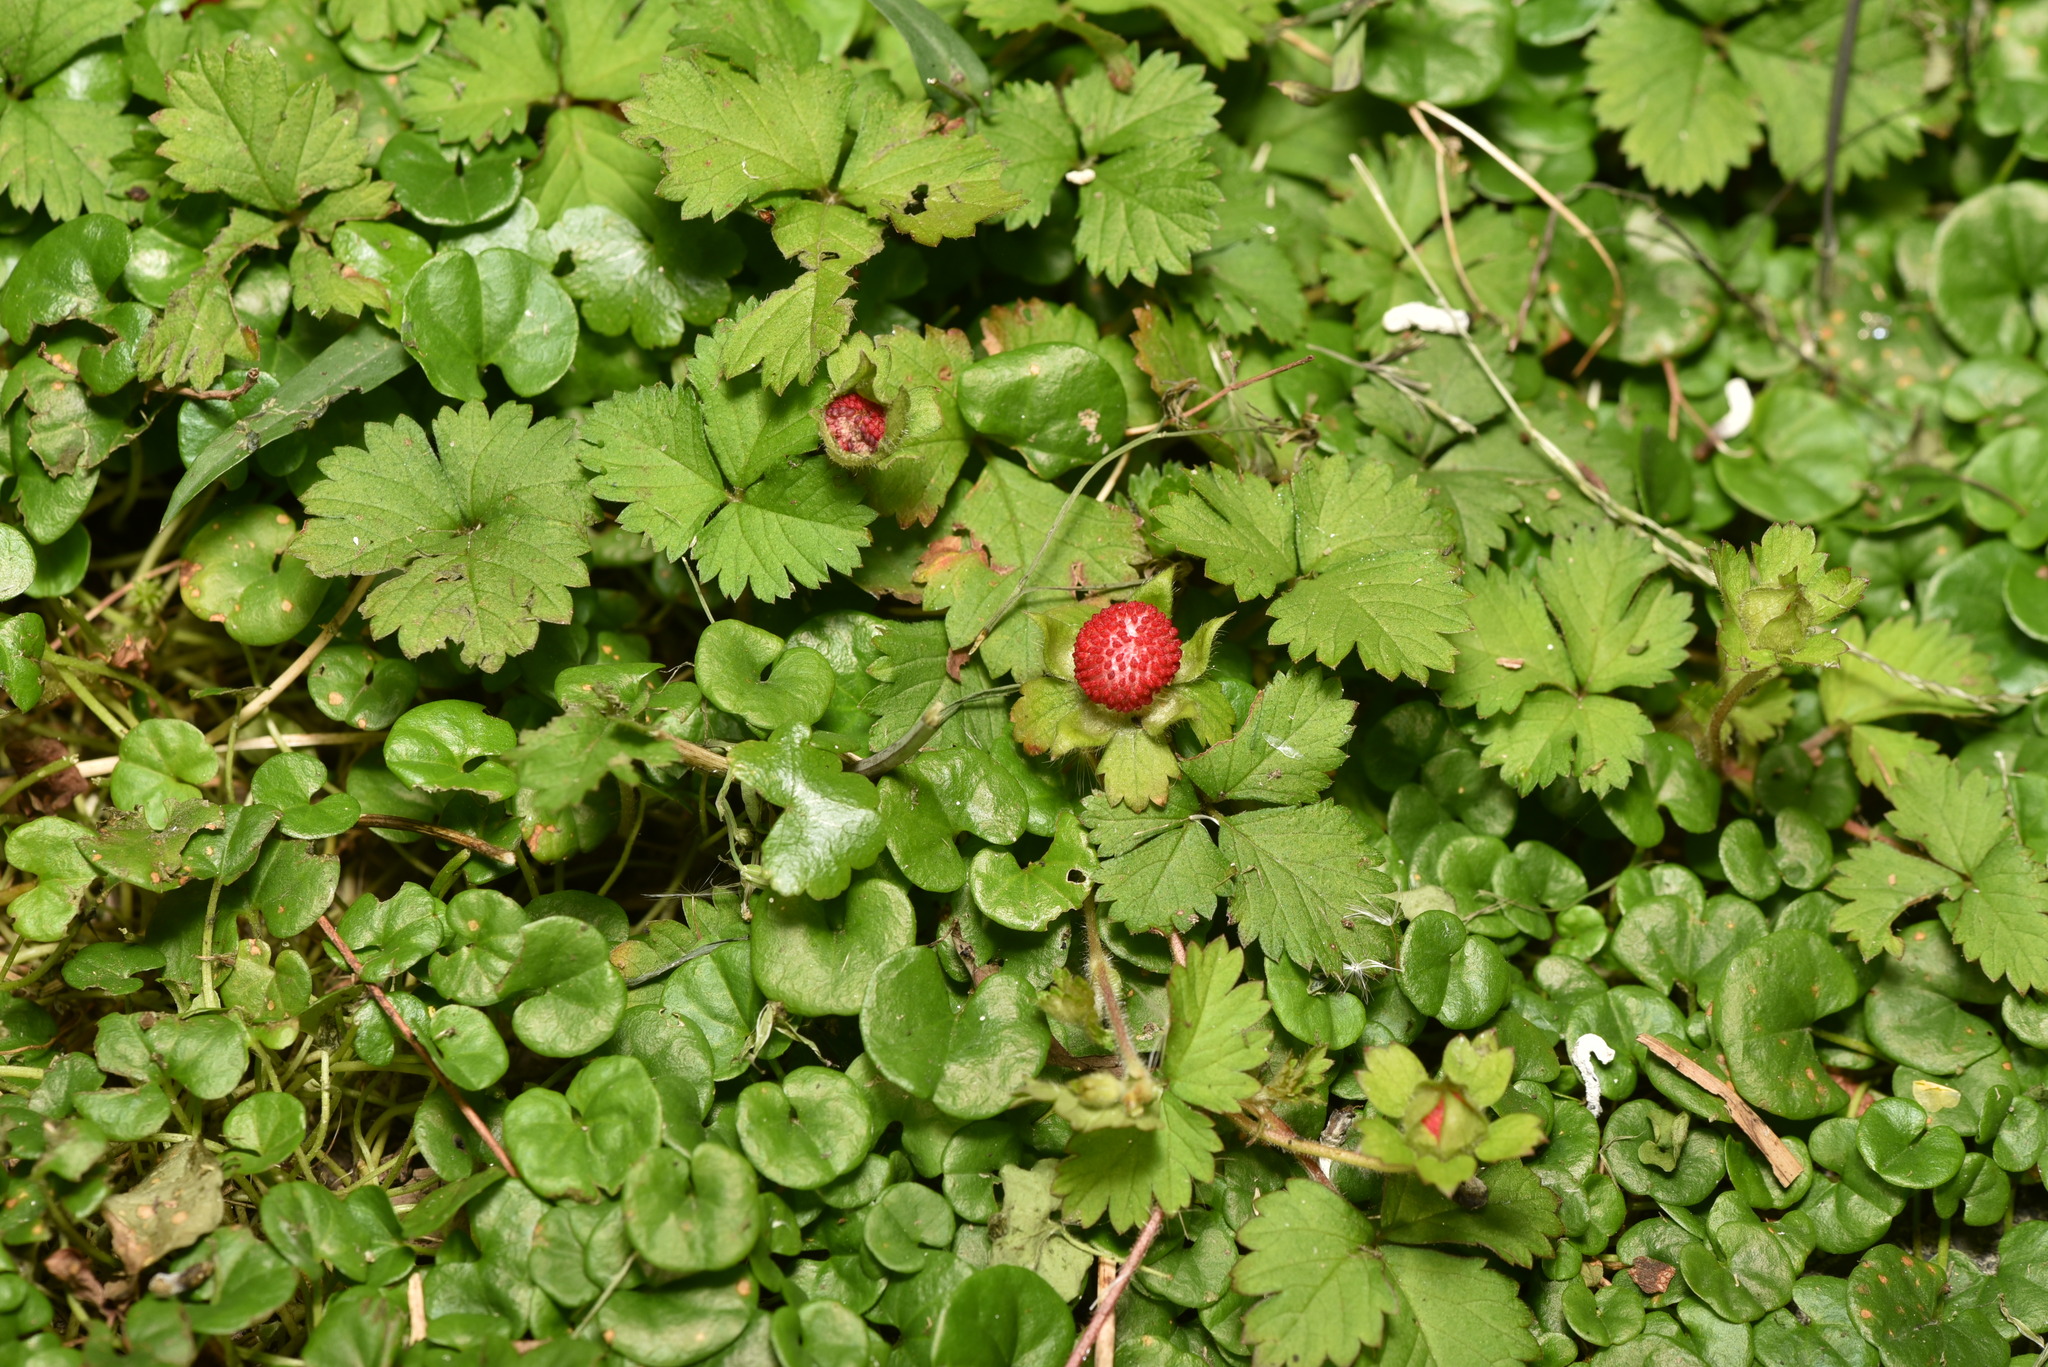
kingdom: Plantae
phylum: Tracheophyta
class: Magnoliopsida
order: Rosales
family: Rosaceae
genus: Potentilla
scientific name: Potentilla wallichiana
